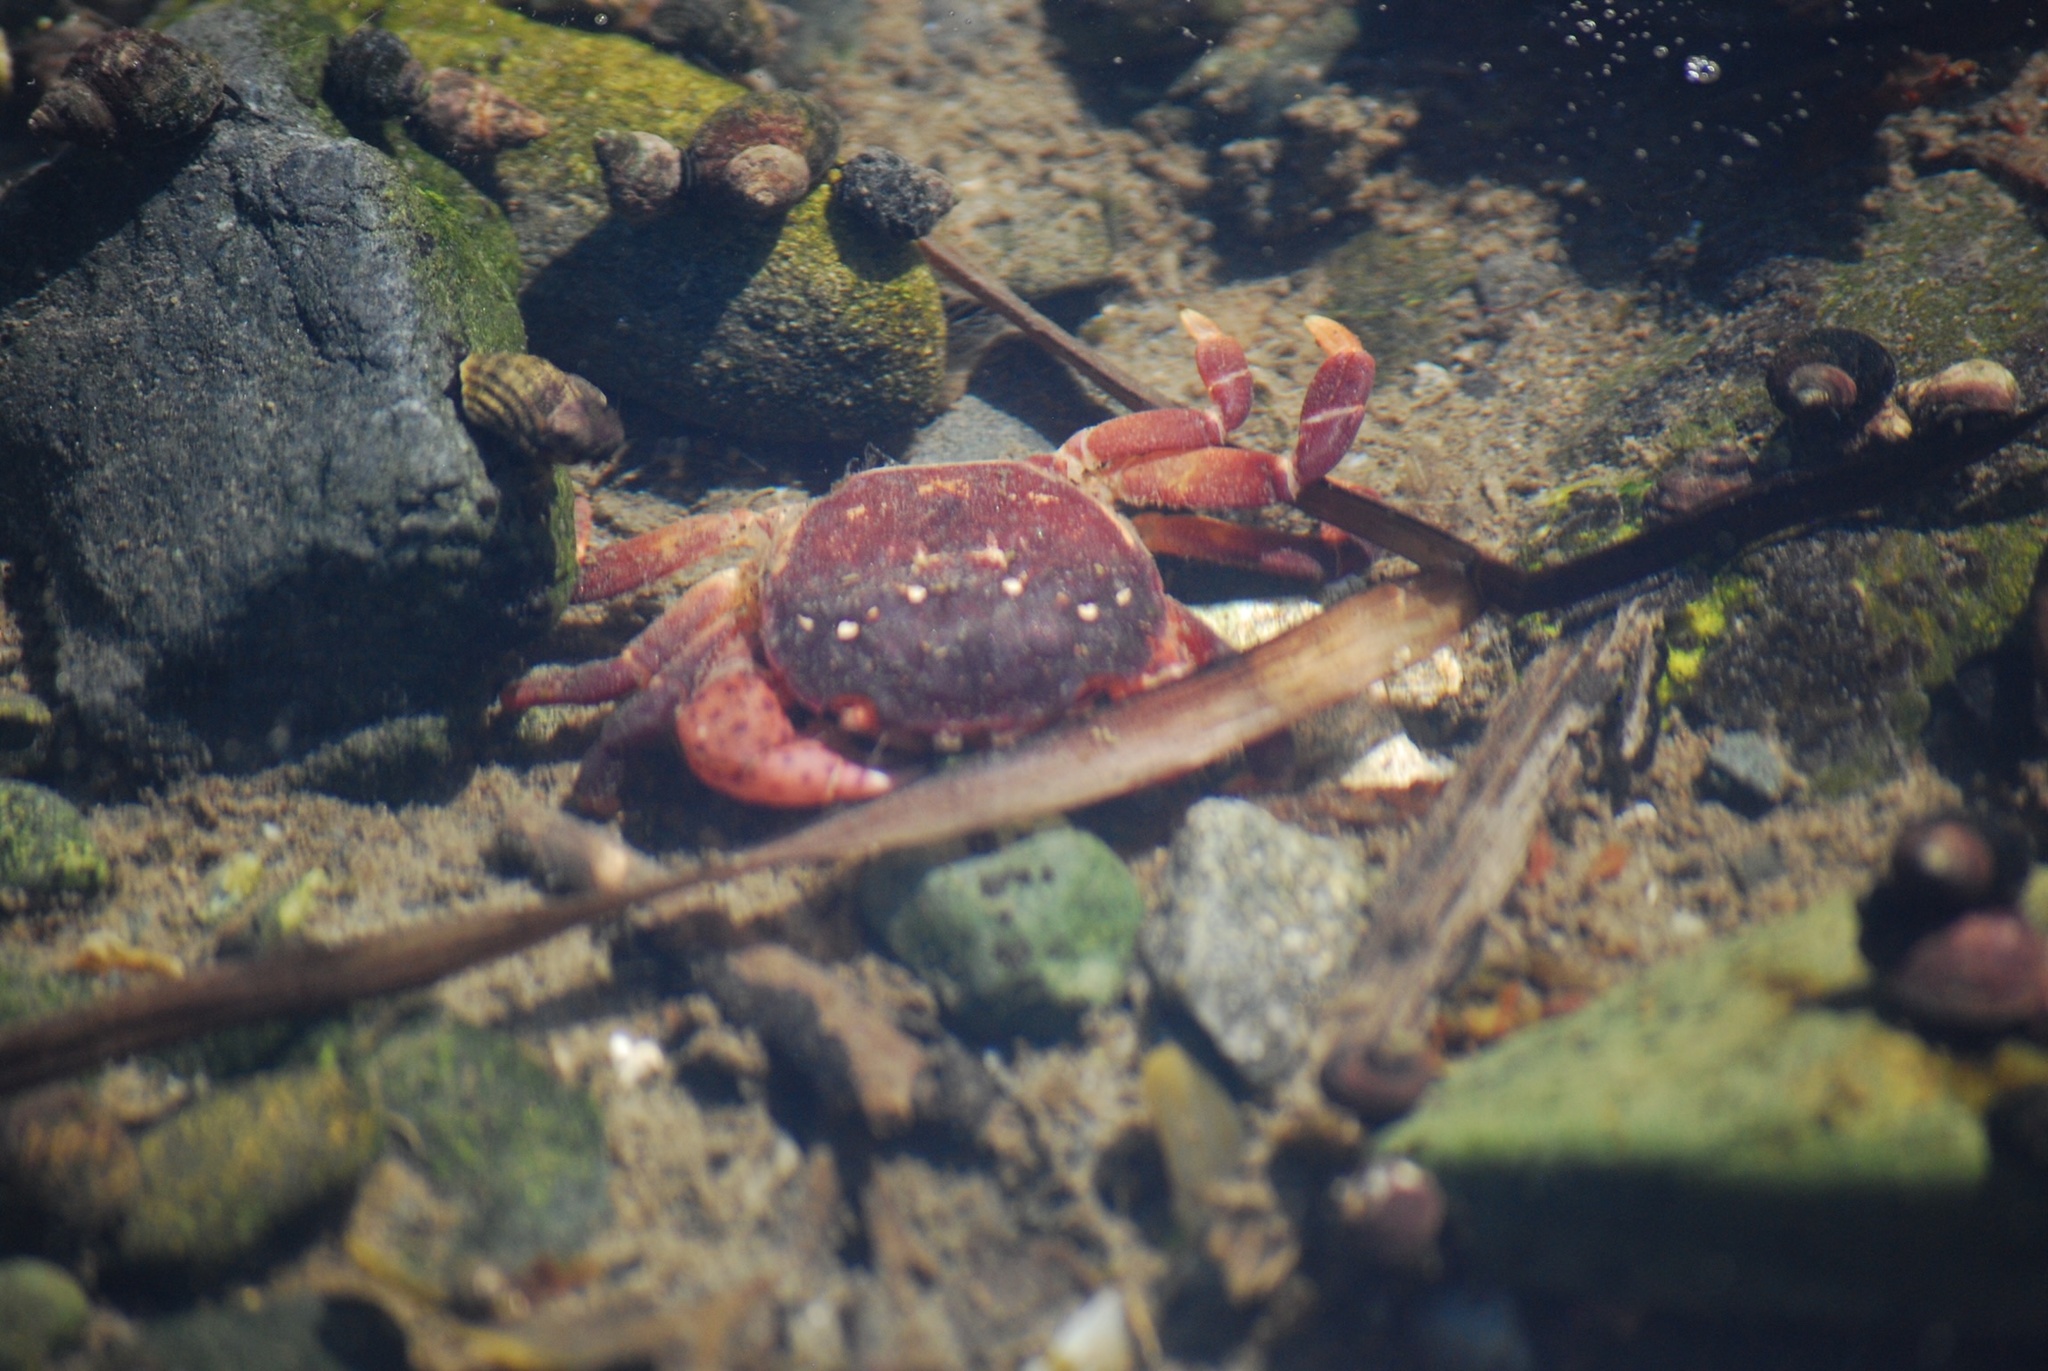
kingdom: Animalia
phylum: Arthropoda
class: Malacostraca
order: Decapoda
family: Varunidae
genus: Hemigrapsus
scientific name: Hemigrapsus nudus
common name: Purple shore crab
